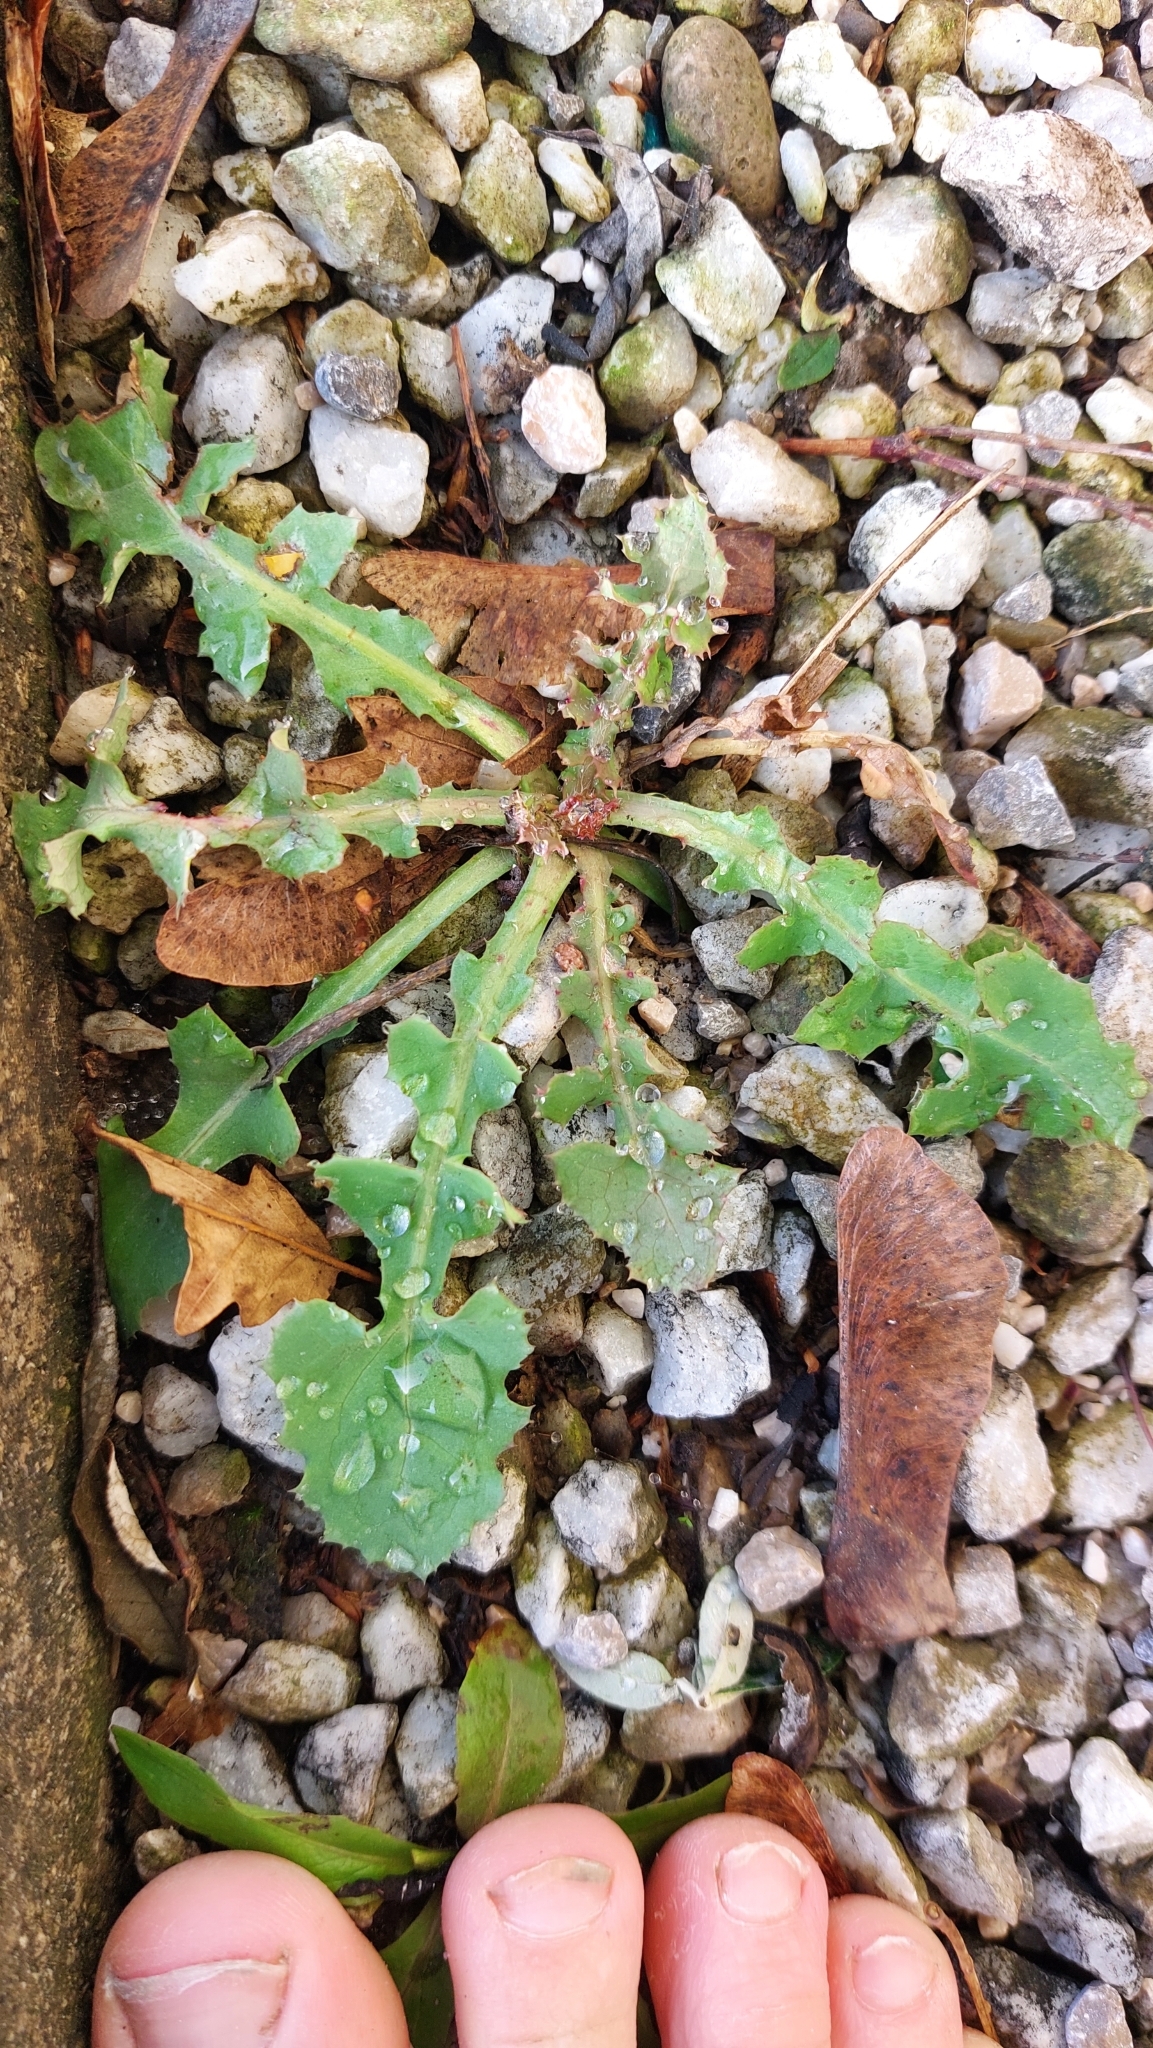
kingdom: Plantae
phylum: Tracheophyta
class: Magnoliopsida
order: Asterales
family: Asteraceae
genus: Sonchus
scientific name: Sonchus oleraceus
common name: Common sowthistle
